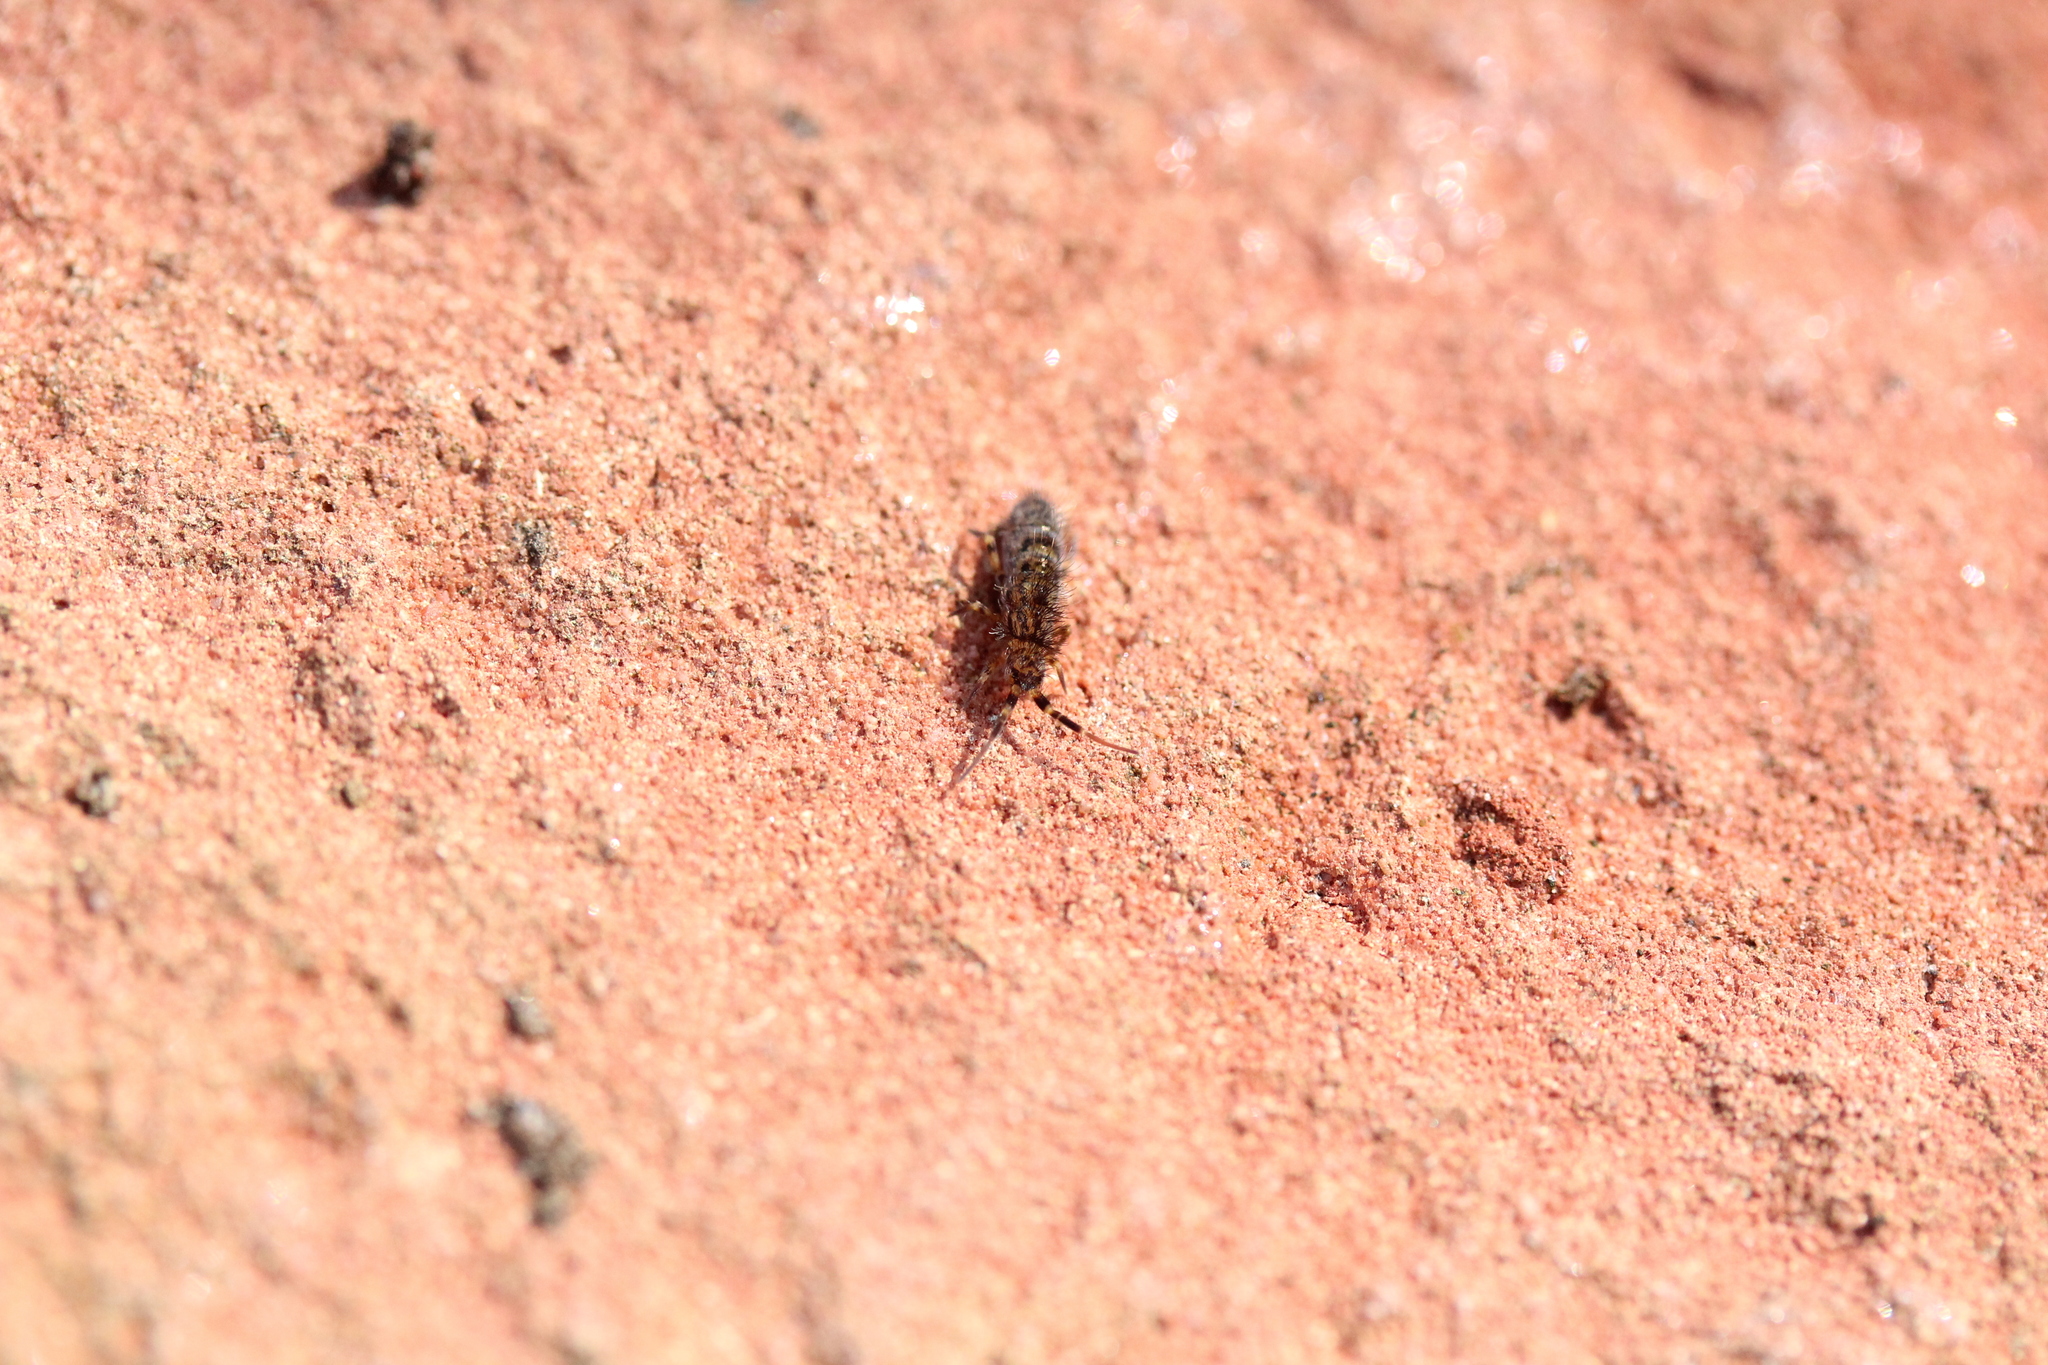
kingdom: Animalia
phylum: Arthropoda
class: Collembola
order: Entomobryomorpha
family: Orchesellidae
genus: Orchesella
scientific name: Orchesella villosa
